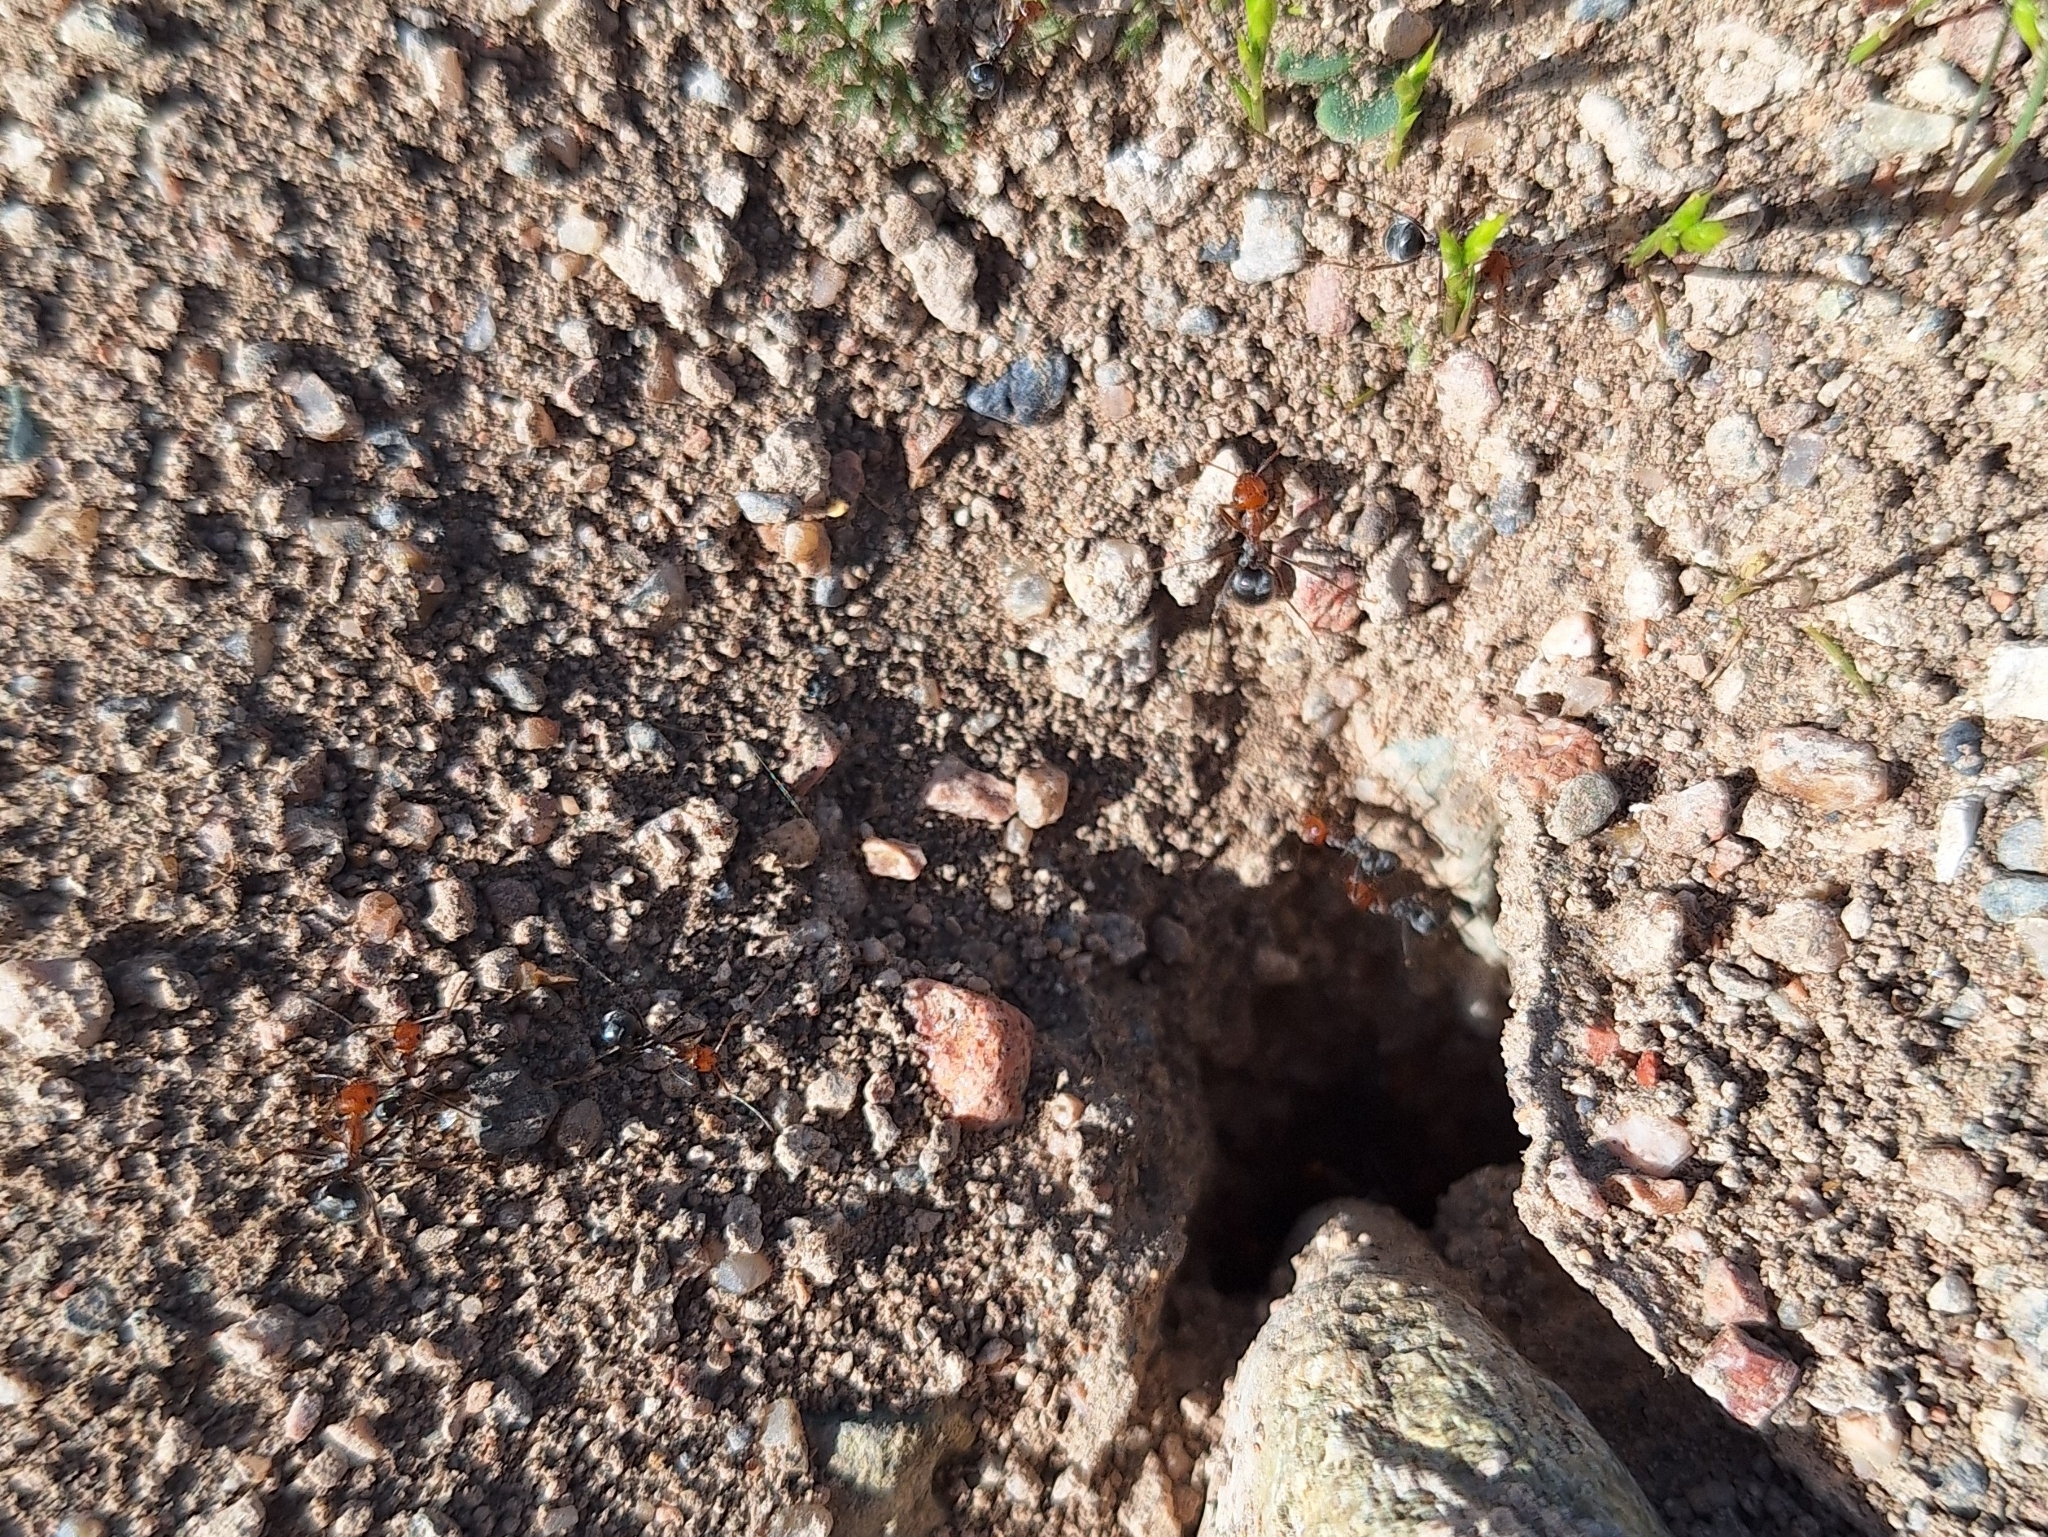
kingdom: Animalia
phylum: Arthropoda
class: Insecta
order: Hymenoptera
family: Formicidae
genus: Myrmecocystus
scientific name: Myrmecocystus placodops
